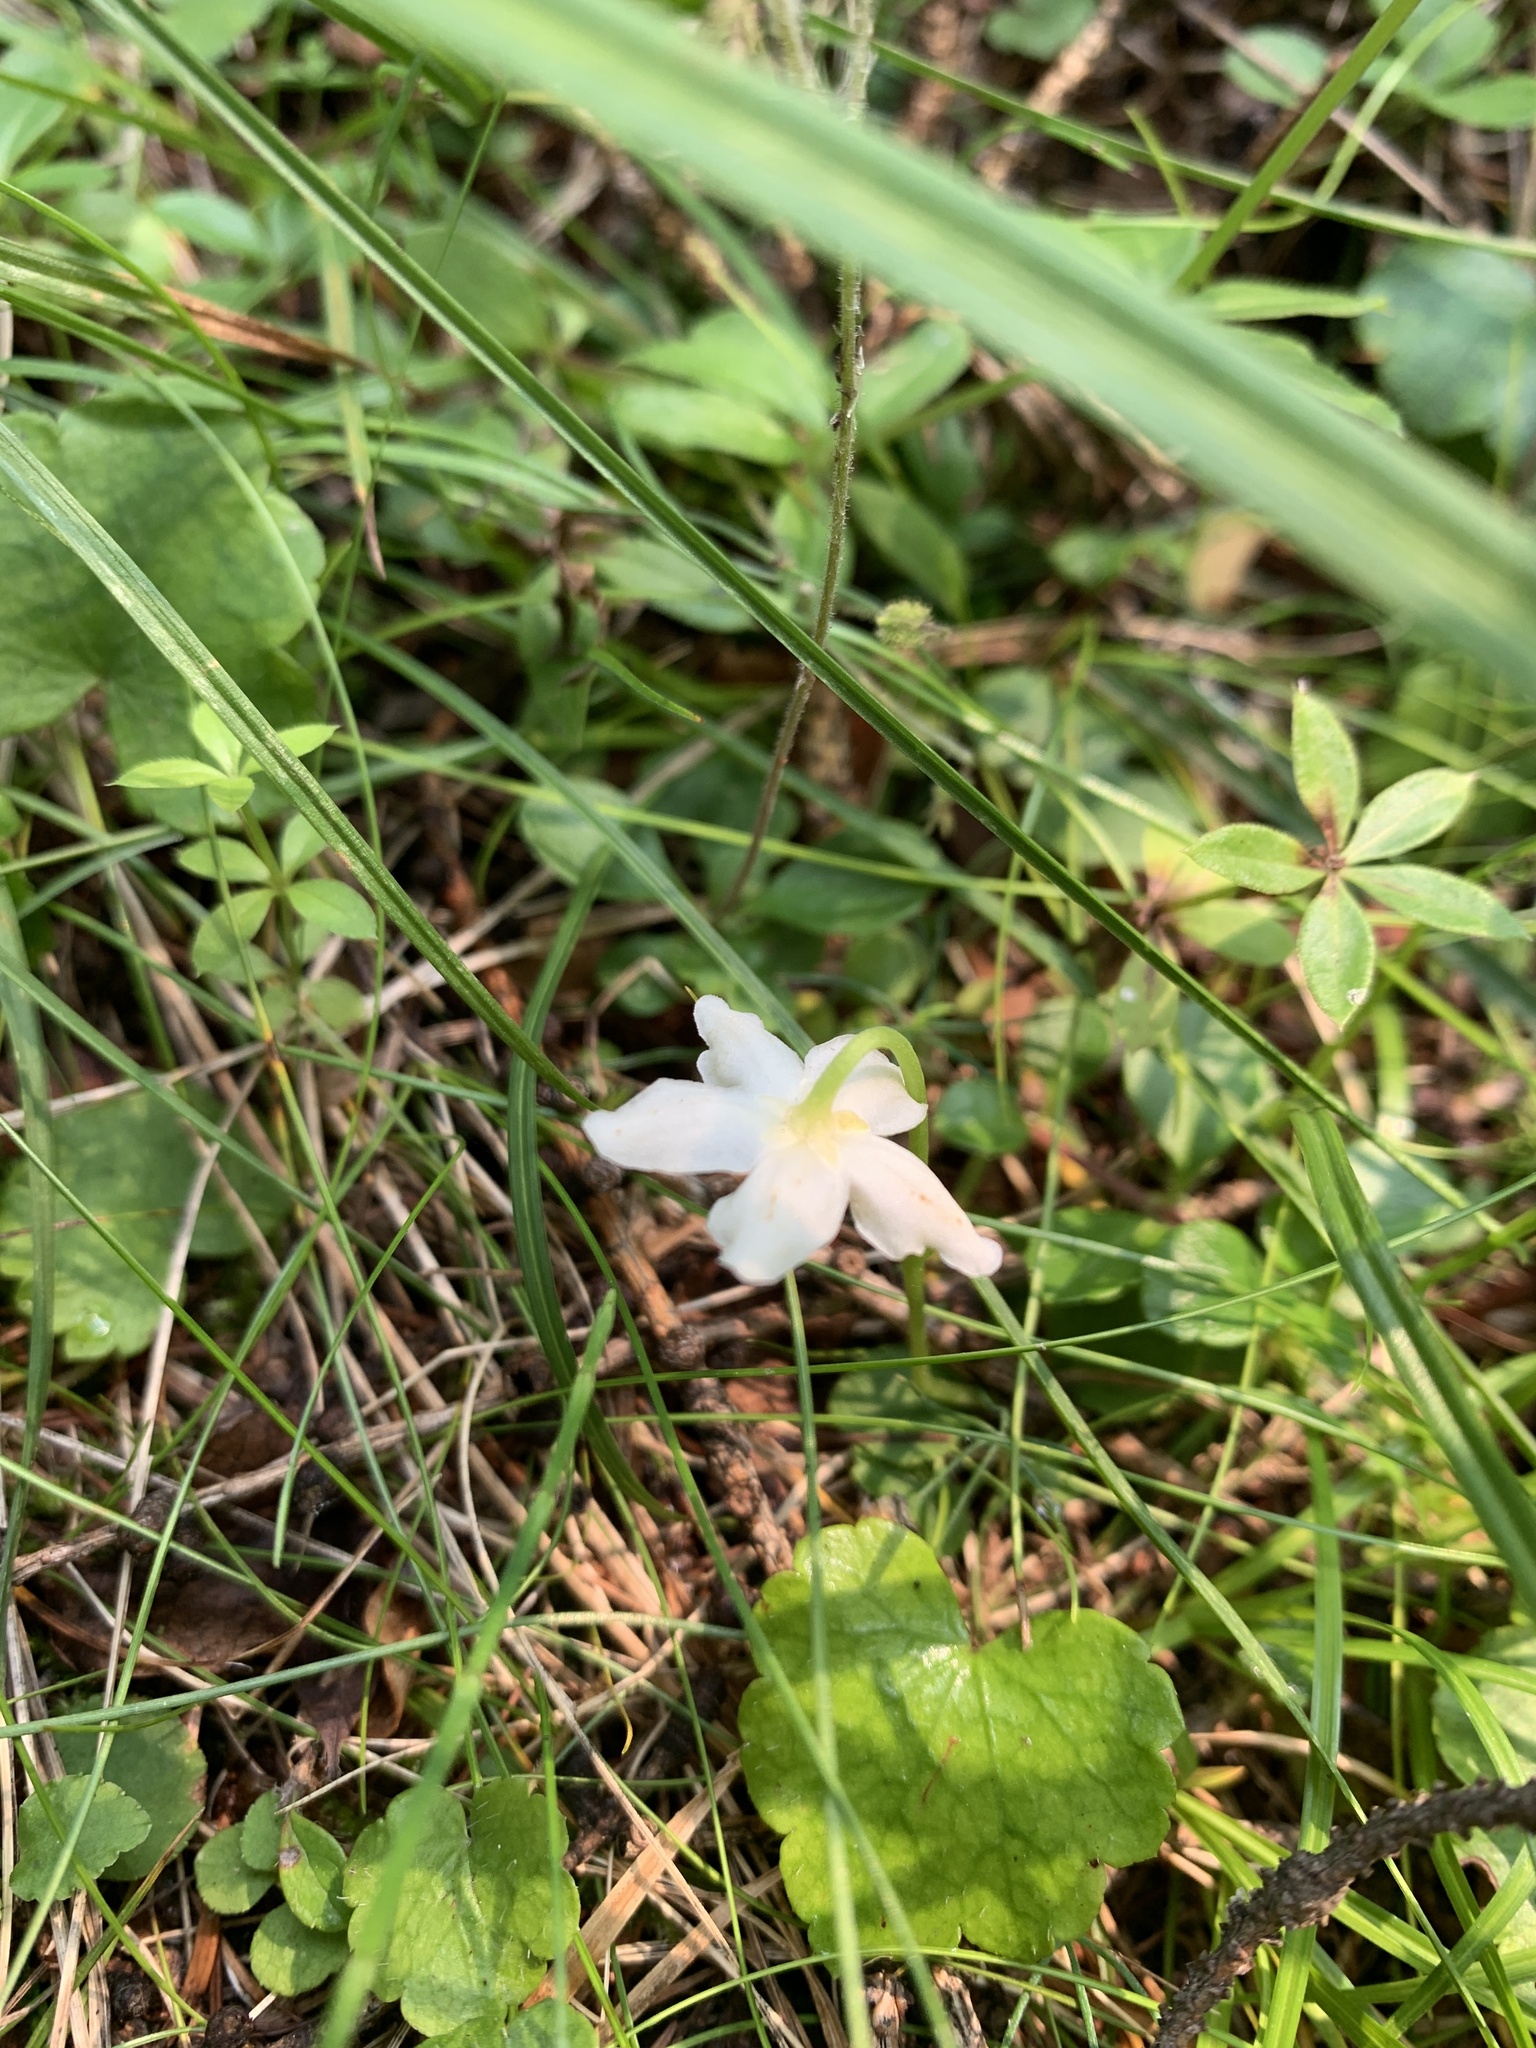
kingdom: Plantae
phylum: Tracheophyta
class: Magnoliopsida
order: Ericales
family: Ericaceae
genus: Moneses
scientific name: Moneses uniflora
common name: One-flowered wintergreen
